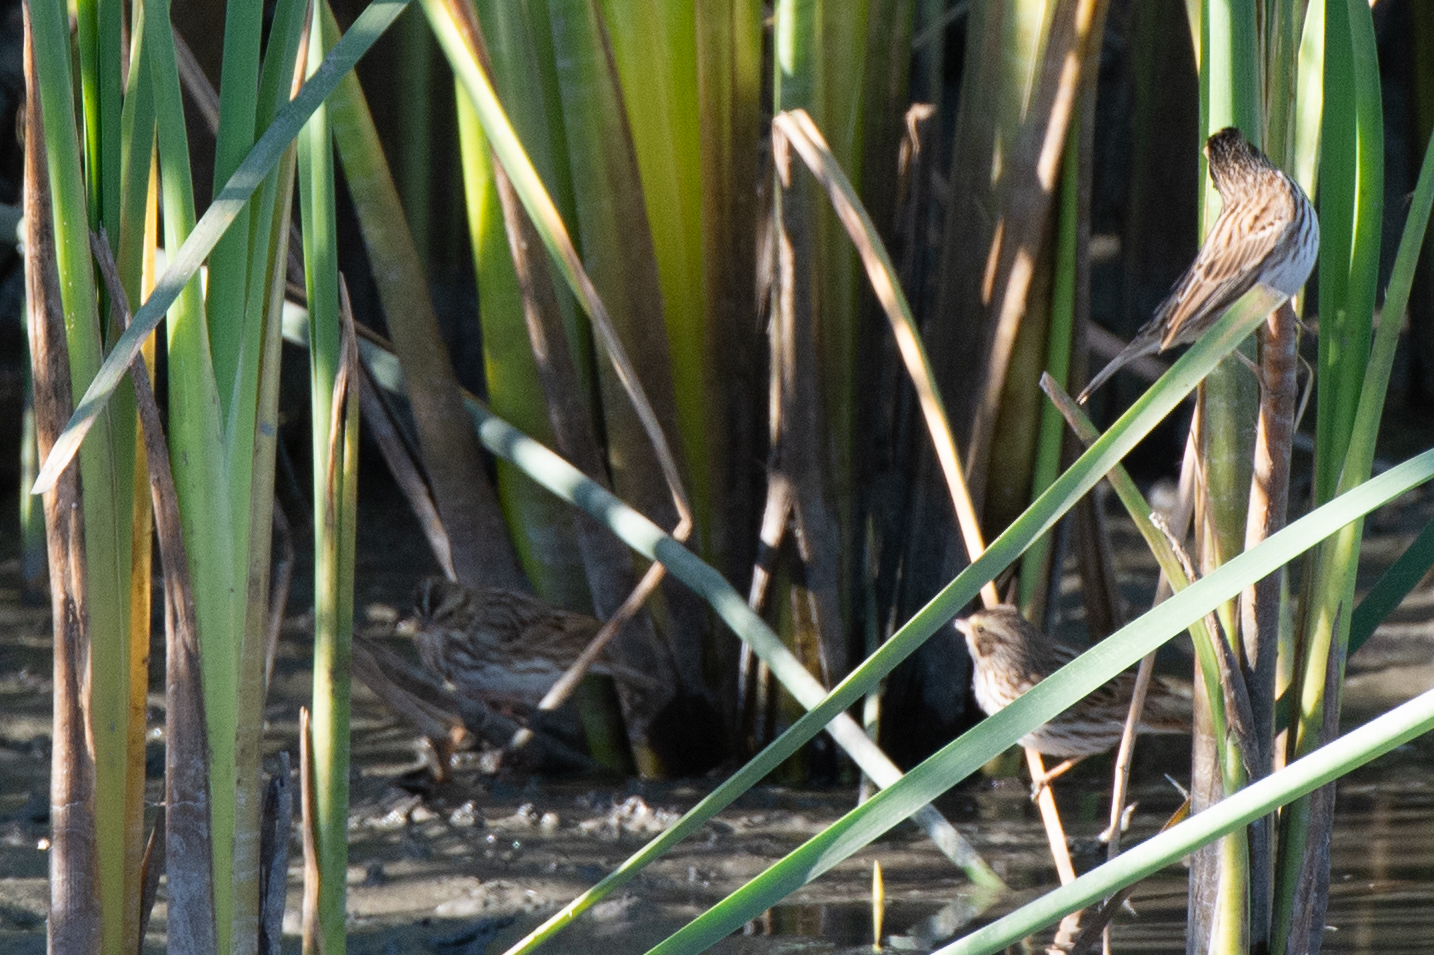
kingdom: Animalia
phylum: Chordata
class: Aves
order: Passeriformes
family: Passerellidae
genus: Passerculus
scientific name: Passerculus sandwichensis
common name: Savannah sparrow
